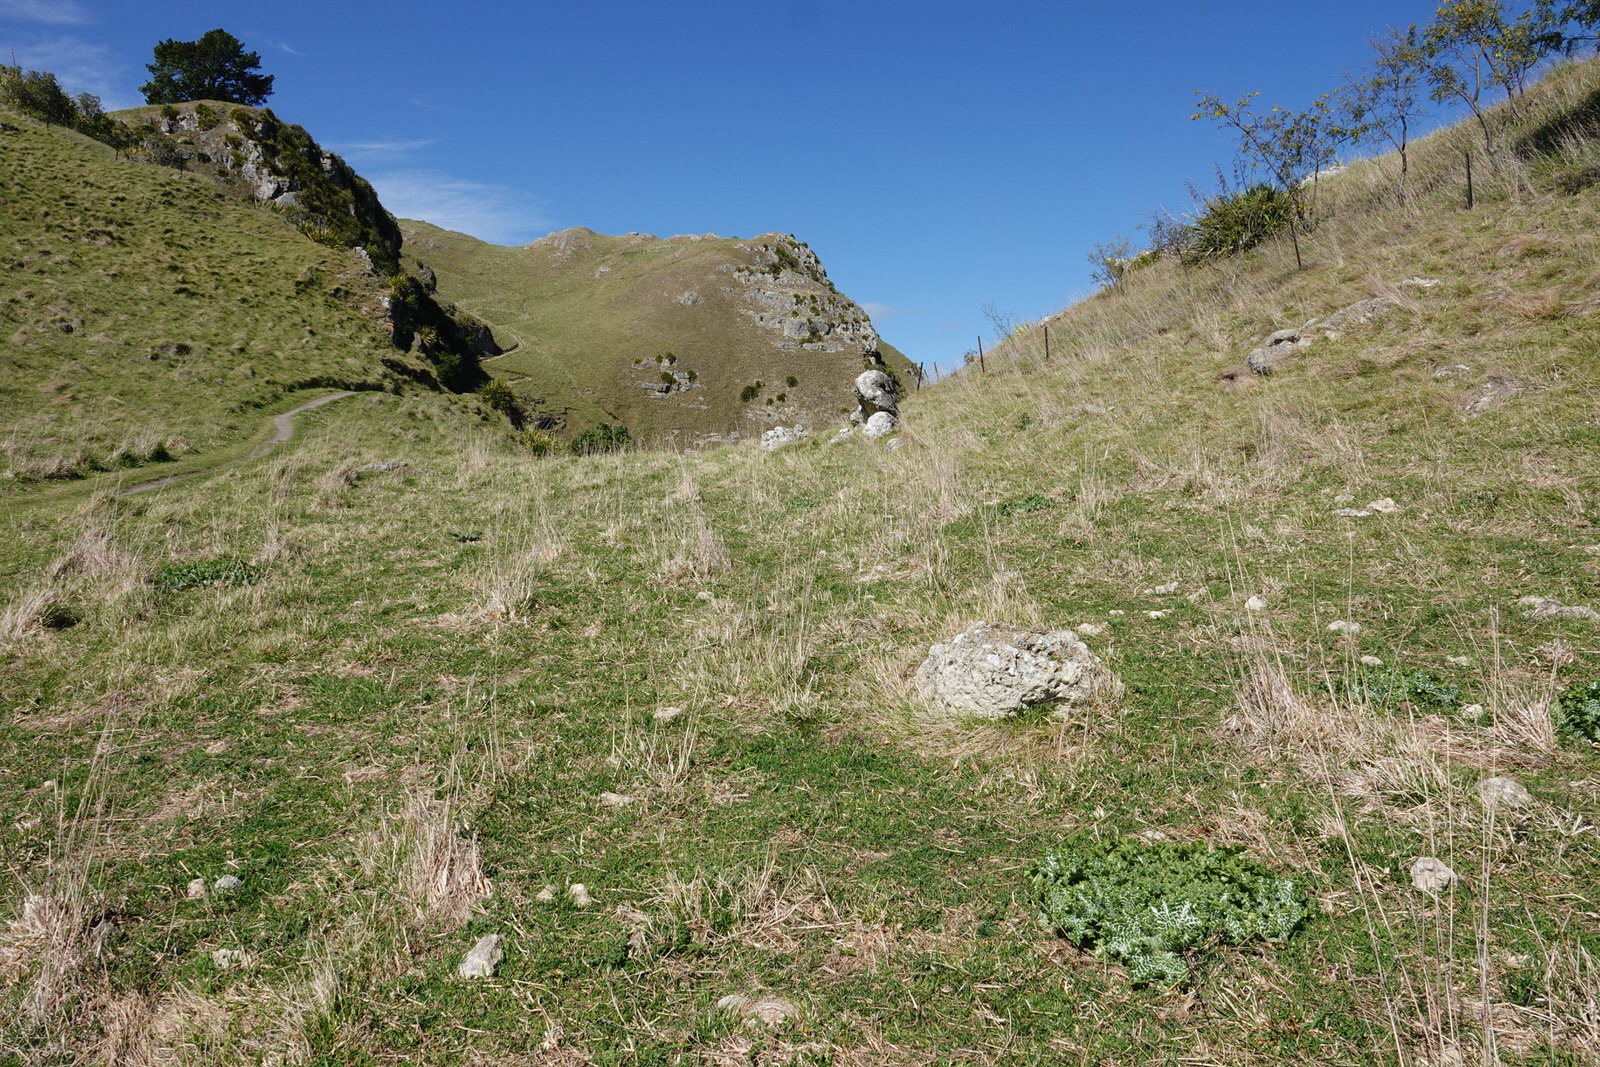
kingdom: Plantae
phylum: Tracheophyta
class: Magnoliopsida
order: Asterales
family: Asteraceae
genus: Silybum
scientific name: Silybum marianum
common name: Milk thistle
